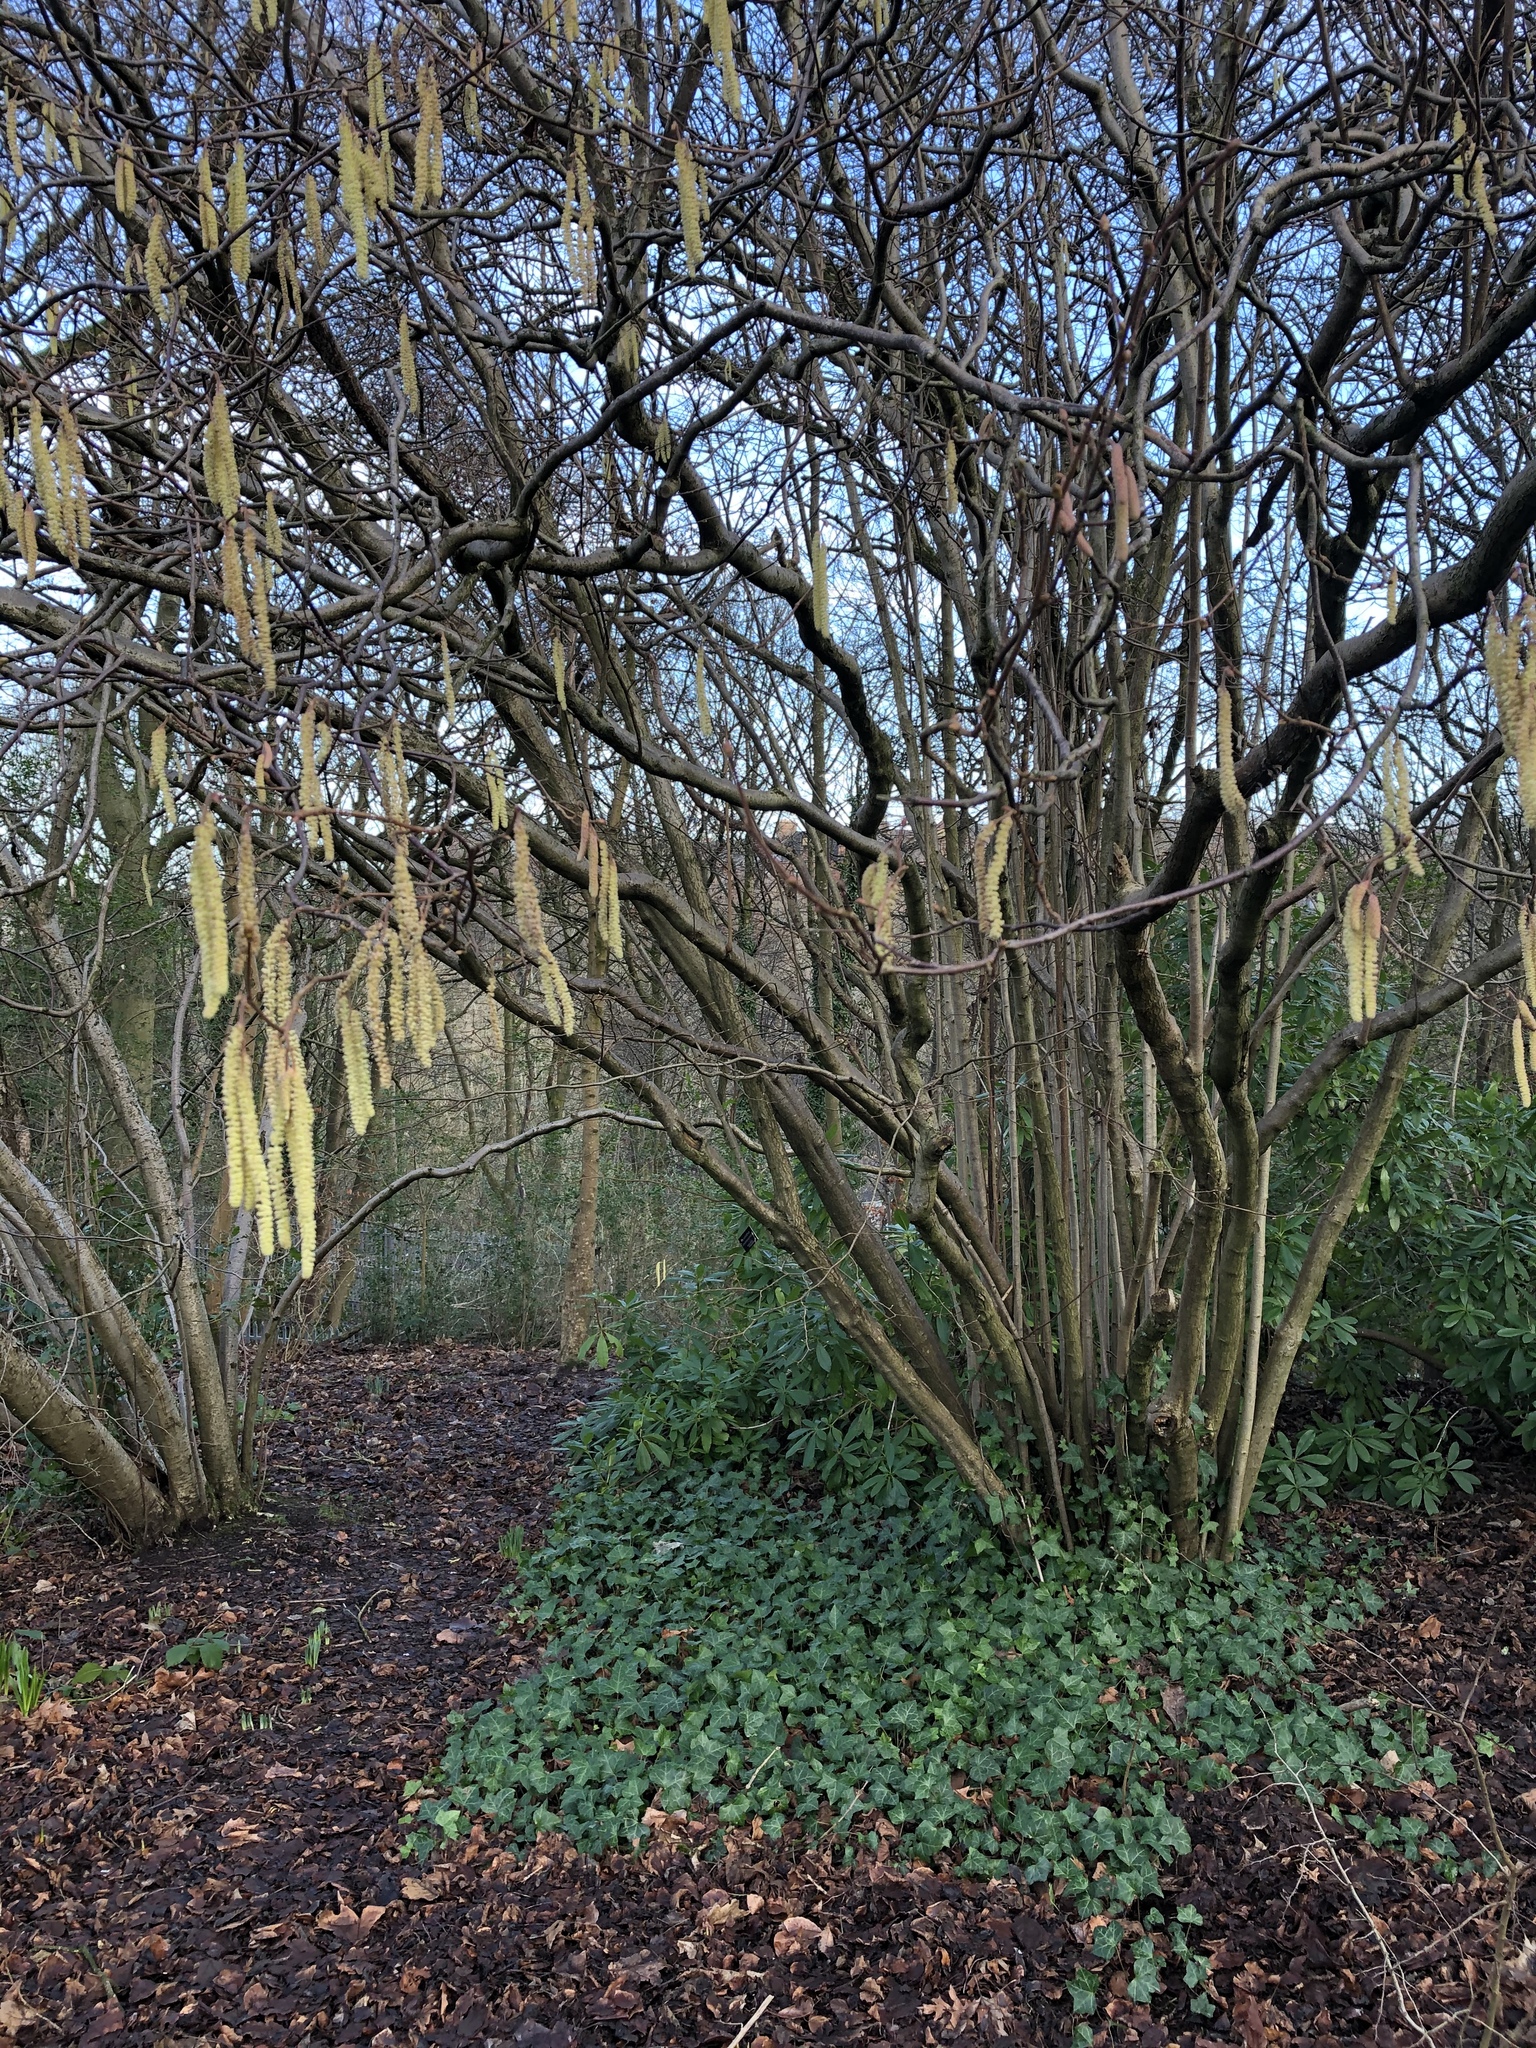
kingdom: Plantae
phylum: Tracheophyta
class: Magnoliopsida
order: Fagales
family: Betulaceae
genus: Corylus
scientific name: Corylus avellana
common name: European hazel
